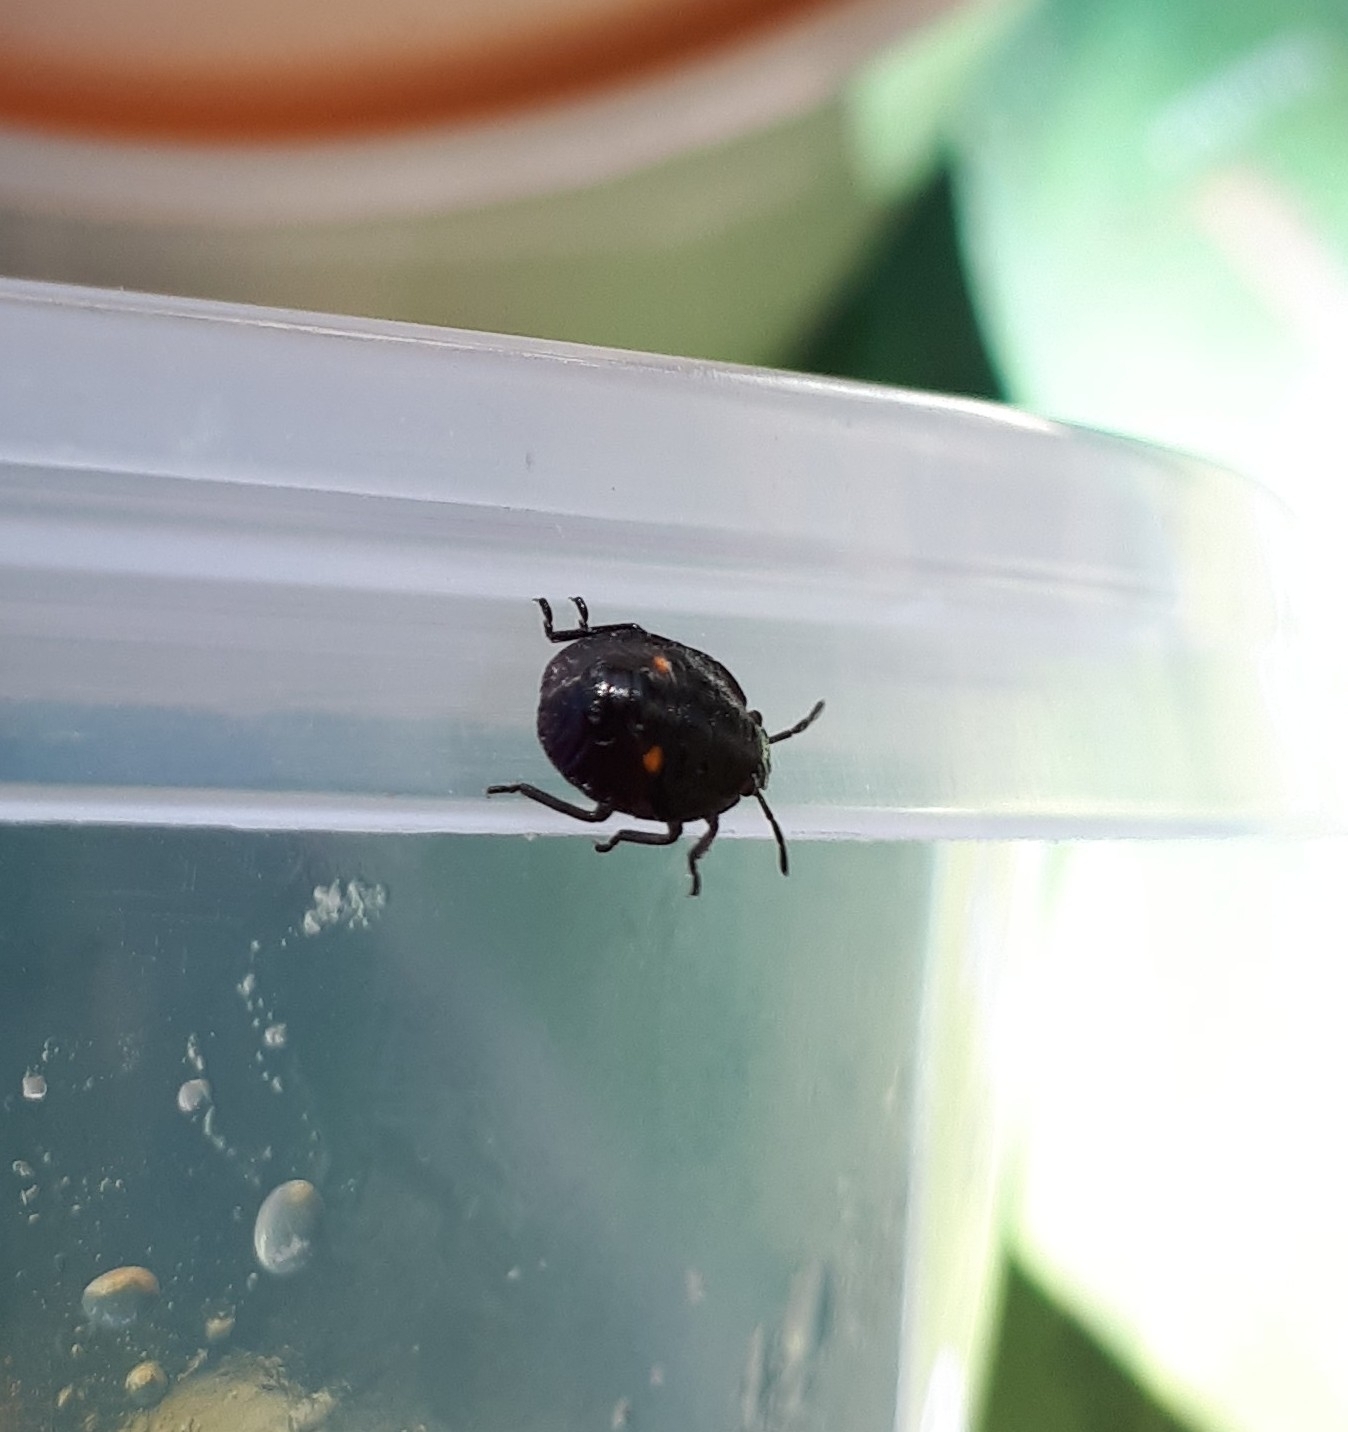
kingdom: Animalia
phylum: Arthropoda
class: Insecta
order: Hemiptera
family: Pentatomidae
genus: Monteithiella
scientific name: Monteithiella
